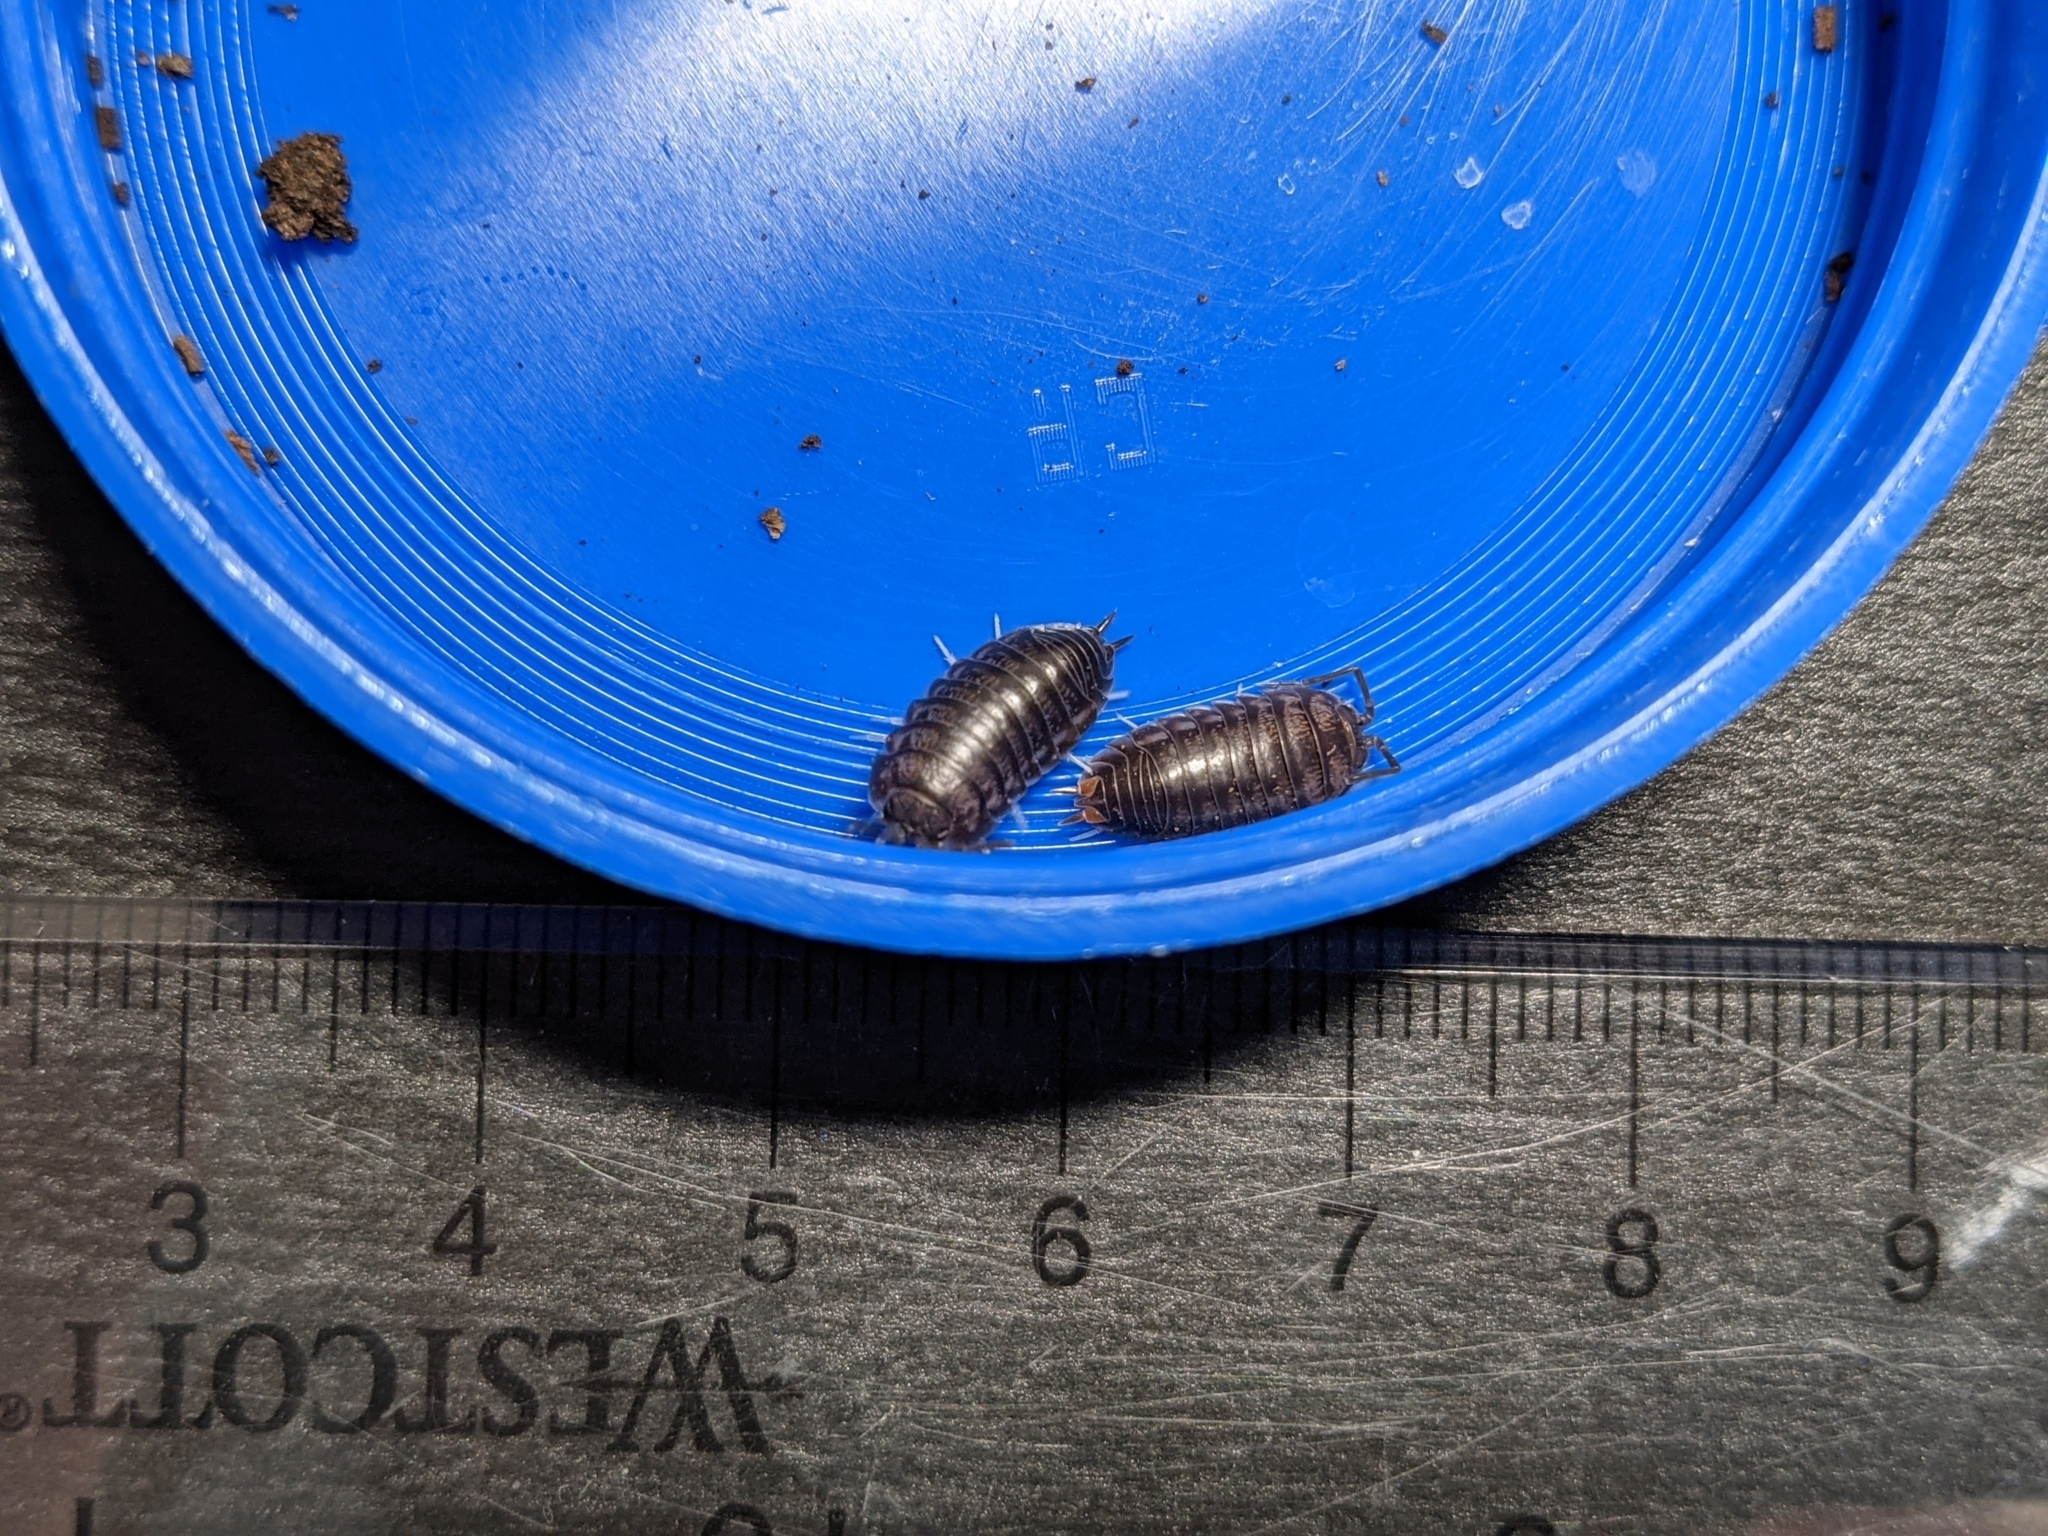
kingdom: Animalia
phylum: Arthropoda
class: Malacostraca
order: Isopoda
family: Cylisticidae
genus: Cylisticus
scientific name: Cylisticus convexus
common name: Curly woodlouse
